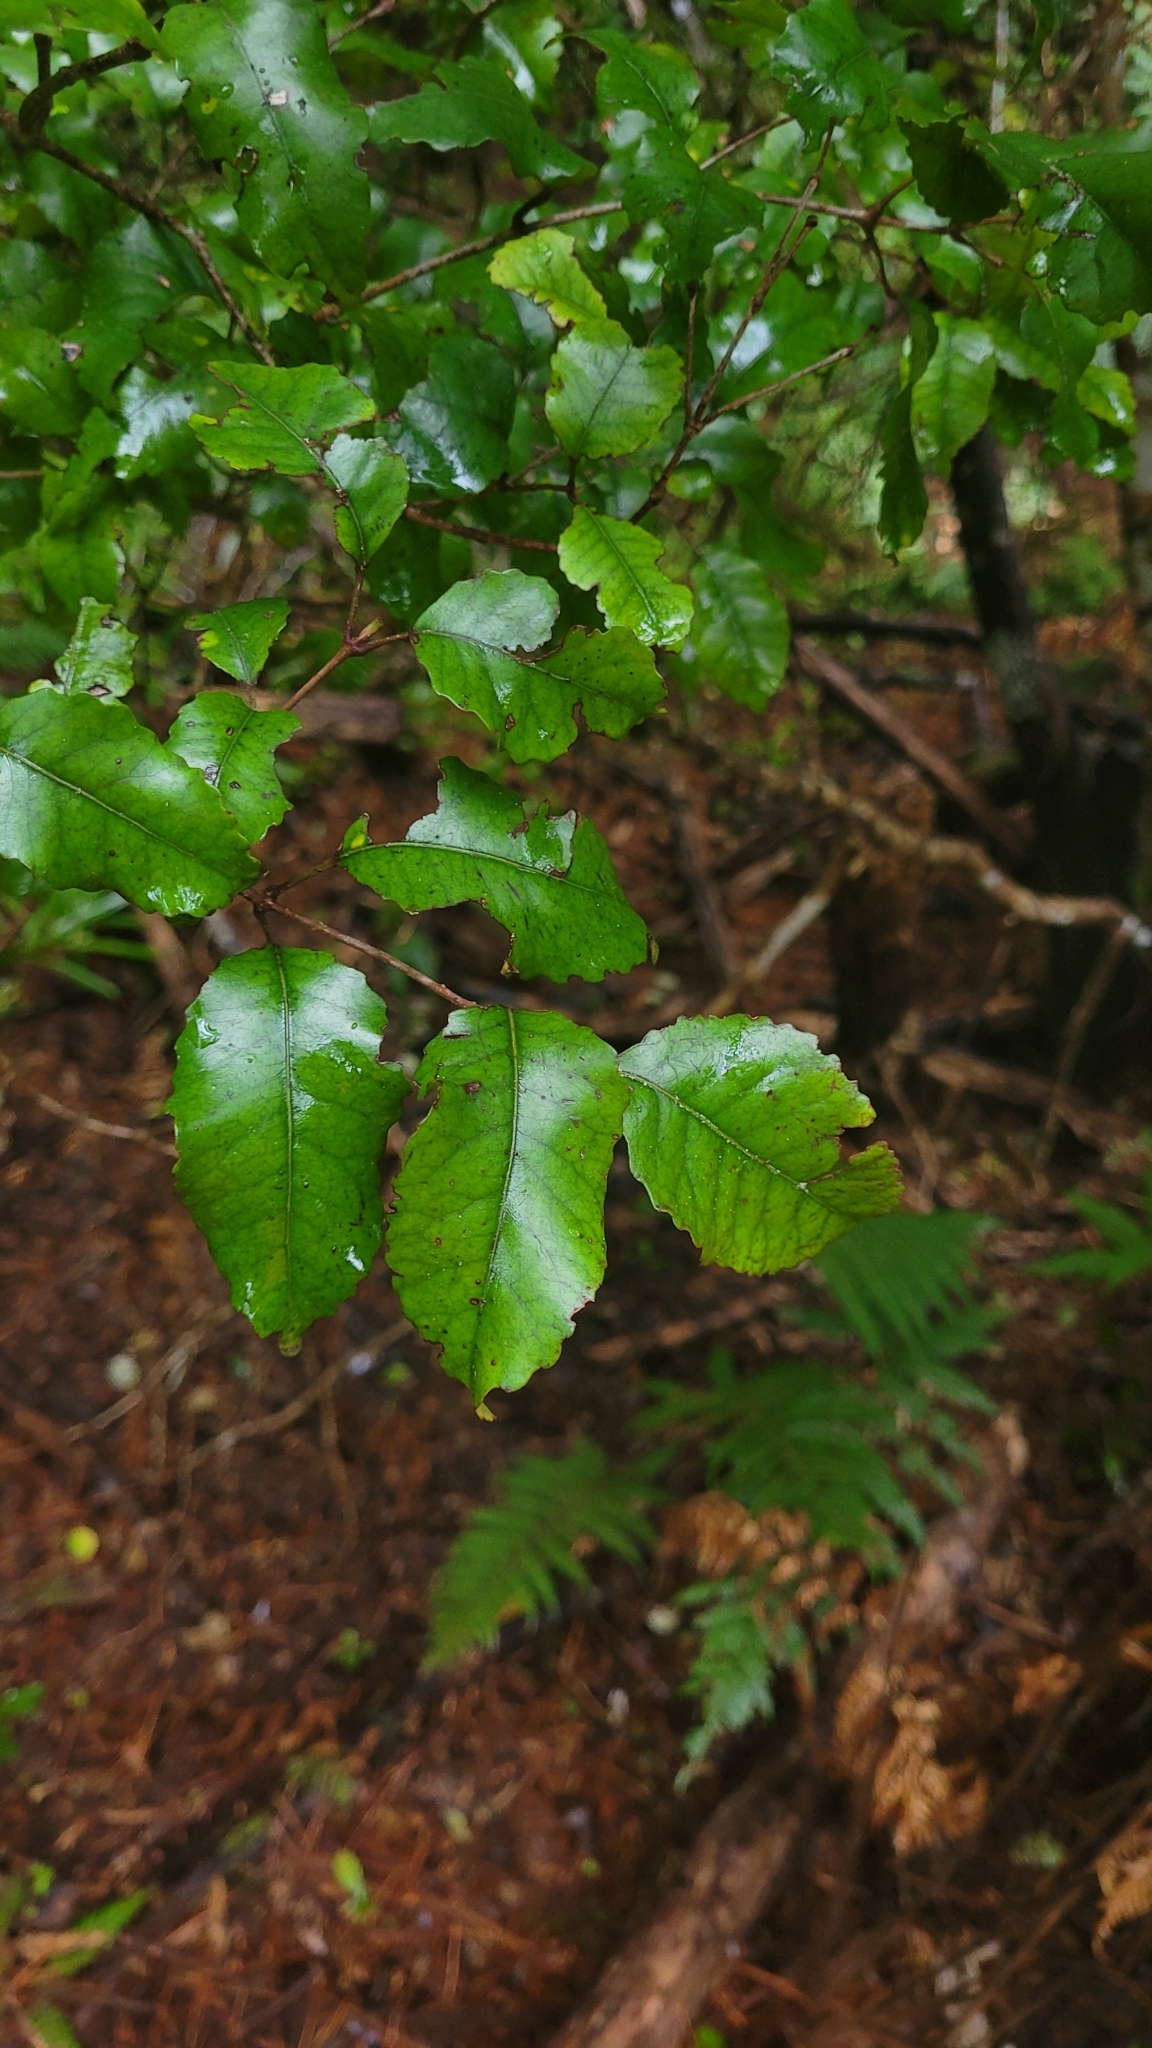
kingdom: Plantae
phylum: Tracheophyta
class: Magnoliopsida
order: Oxalidales
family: Cunoniaceae
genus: Pterophylla
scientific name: Pterophylla racemosa
